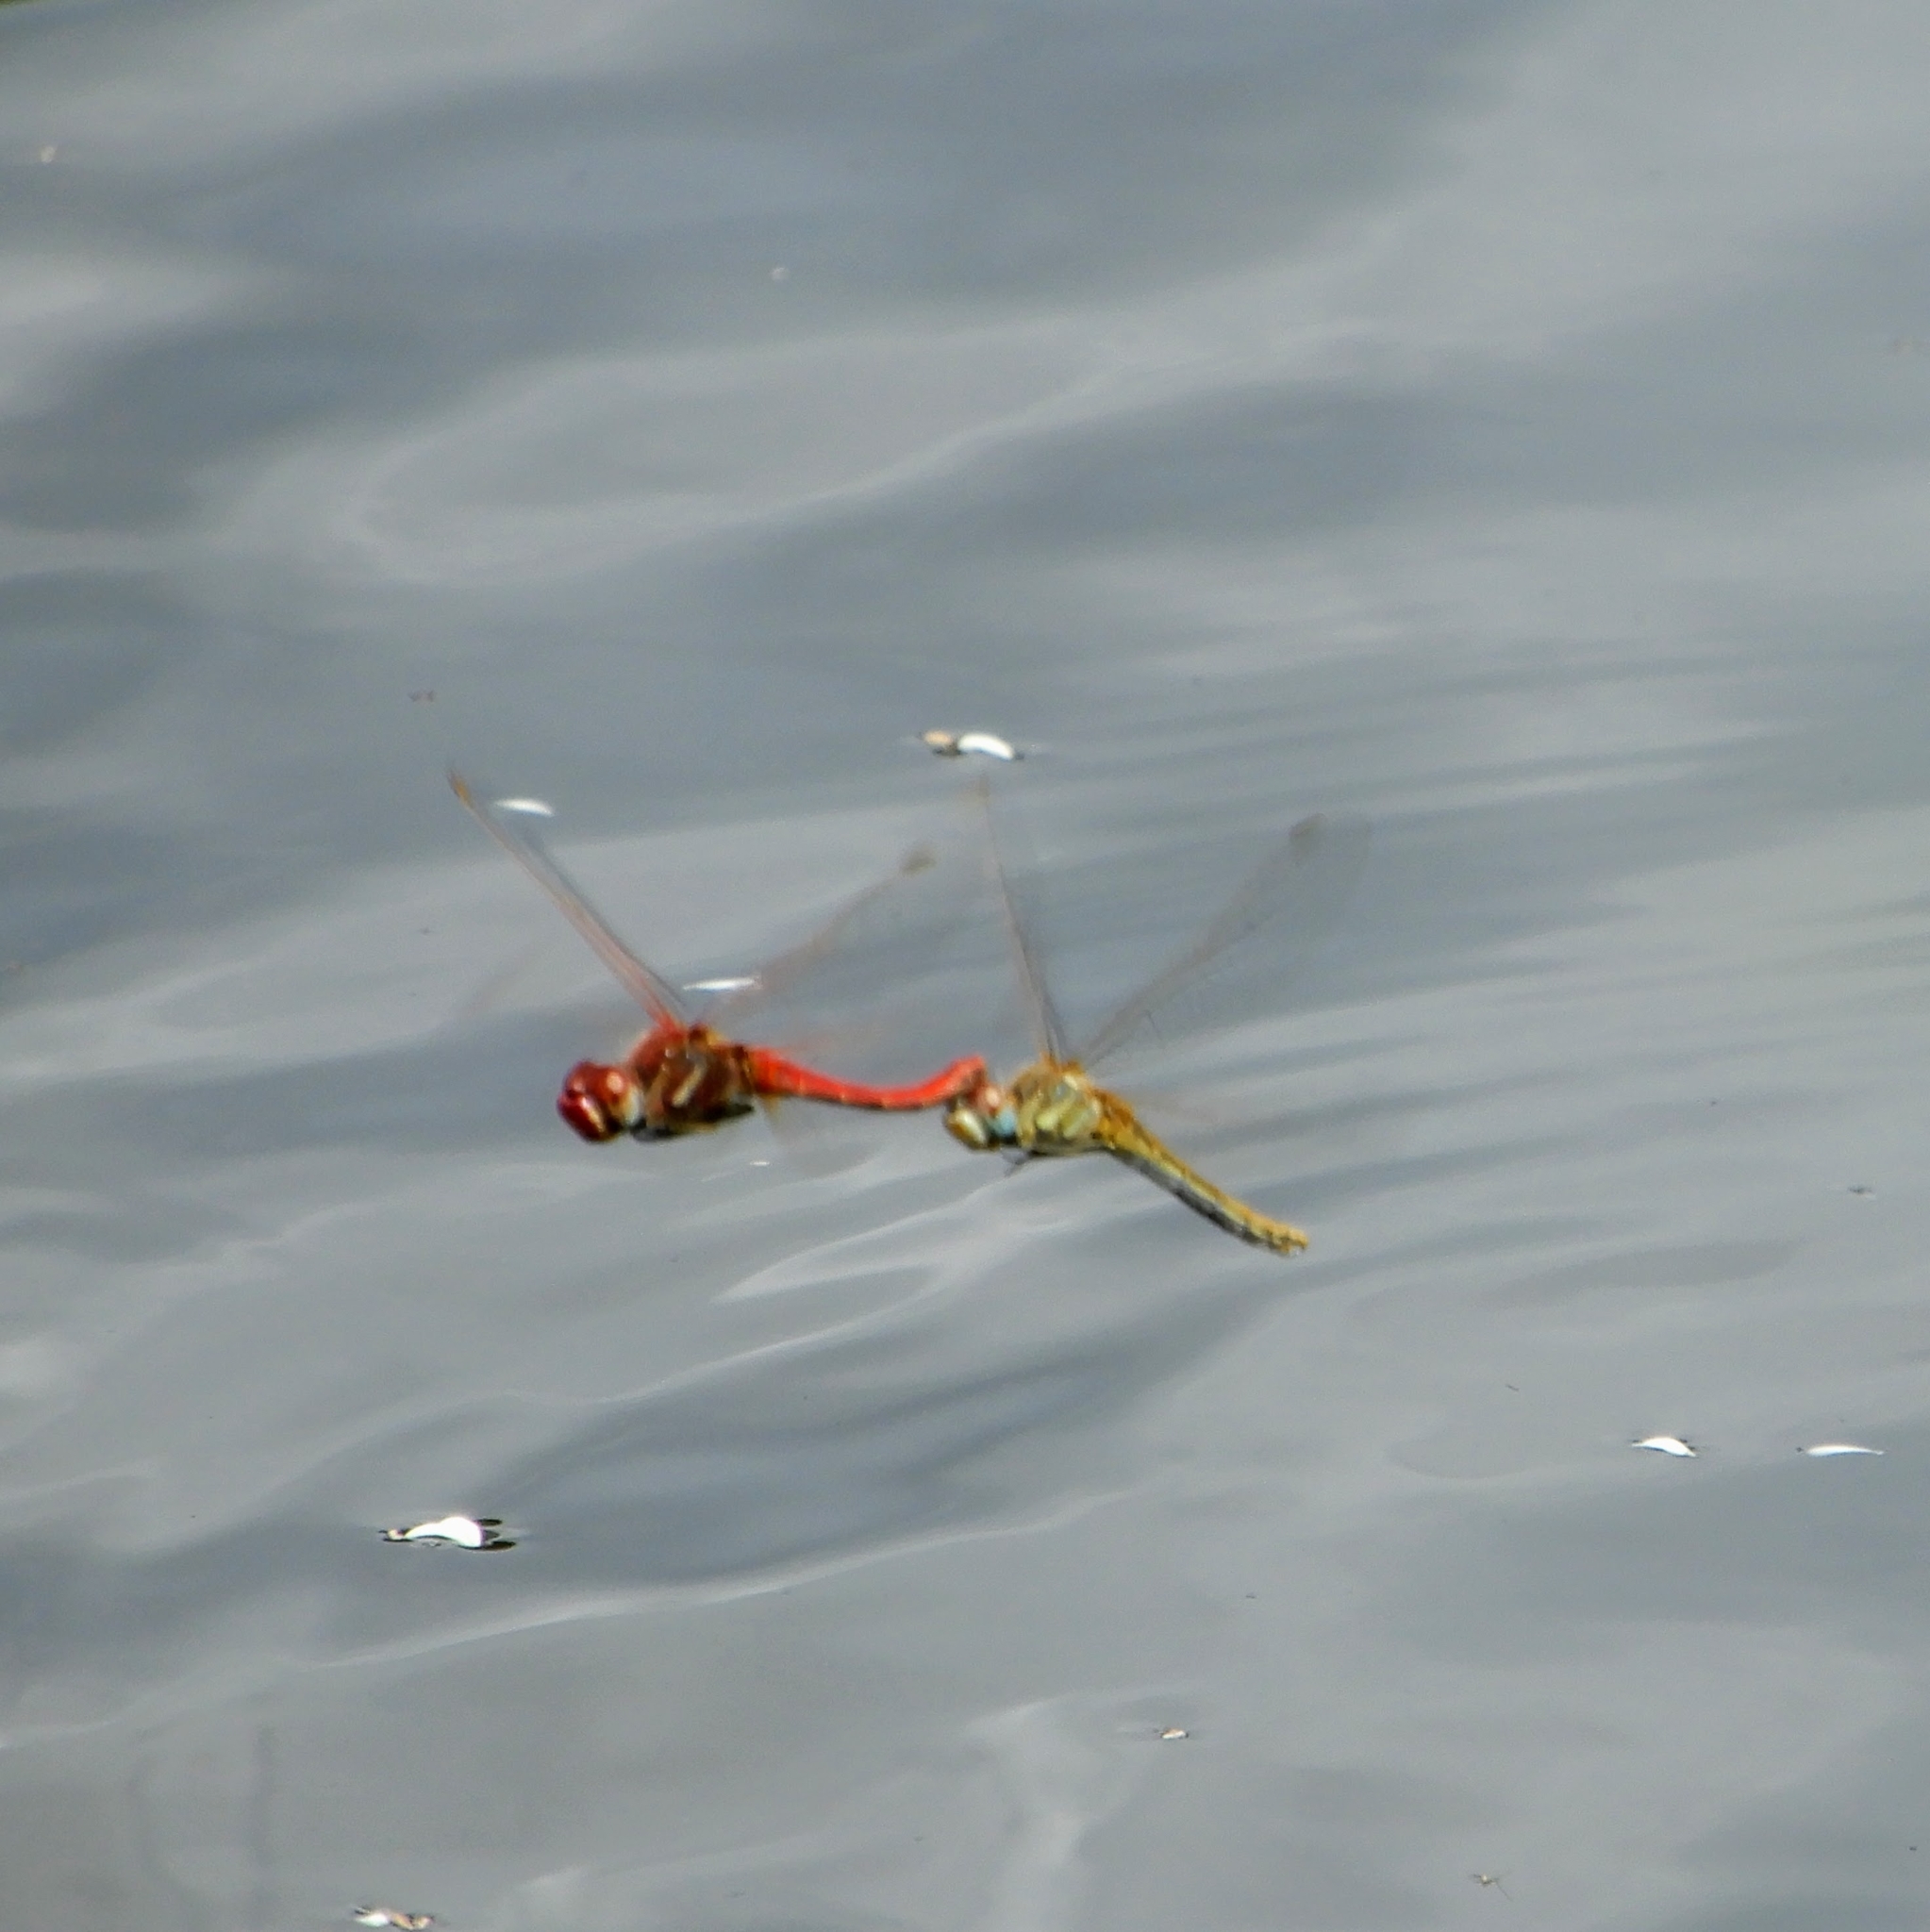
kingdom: Animalia
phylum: Arthropoda
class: Insecta
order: Odonata
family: Libellulidae
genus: Sympetrum
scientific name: Sympetrum fonscolombii
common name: Red-veined darter
